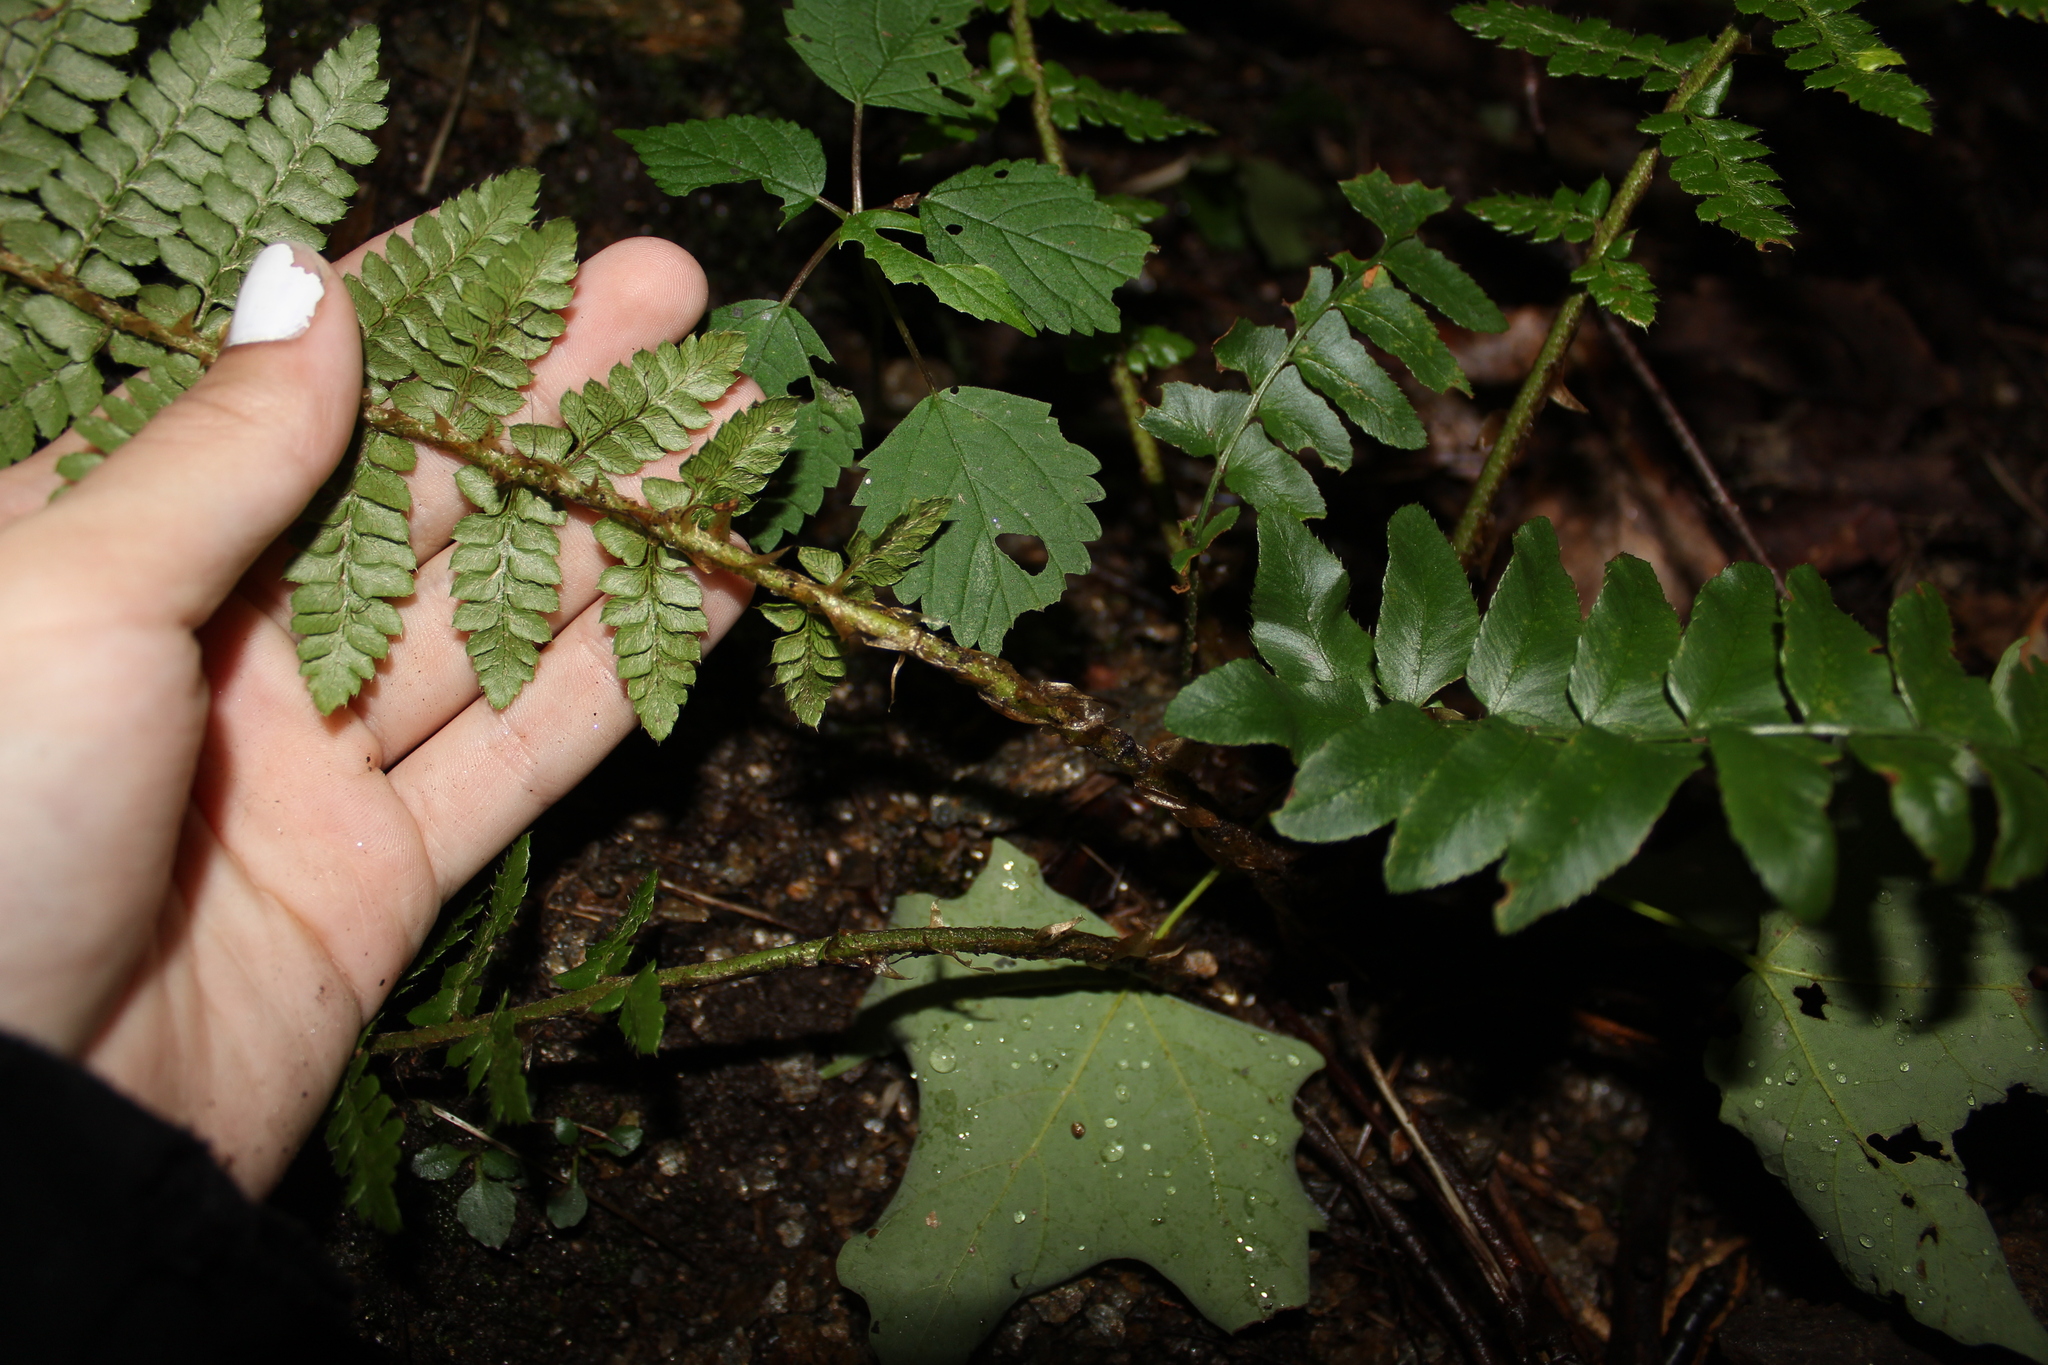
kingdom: Plantae
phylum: Tracheophyta
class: Polypodiopsida
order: Polypodiales
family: Dryopteridaceae
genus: Polystichum
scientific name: Polystichum braunii
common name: Braun's holly fern
